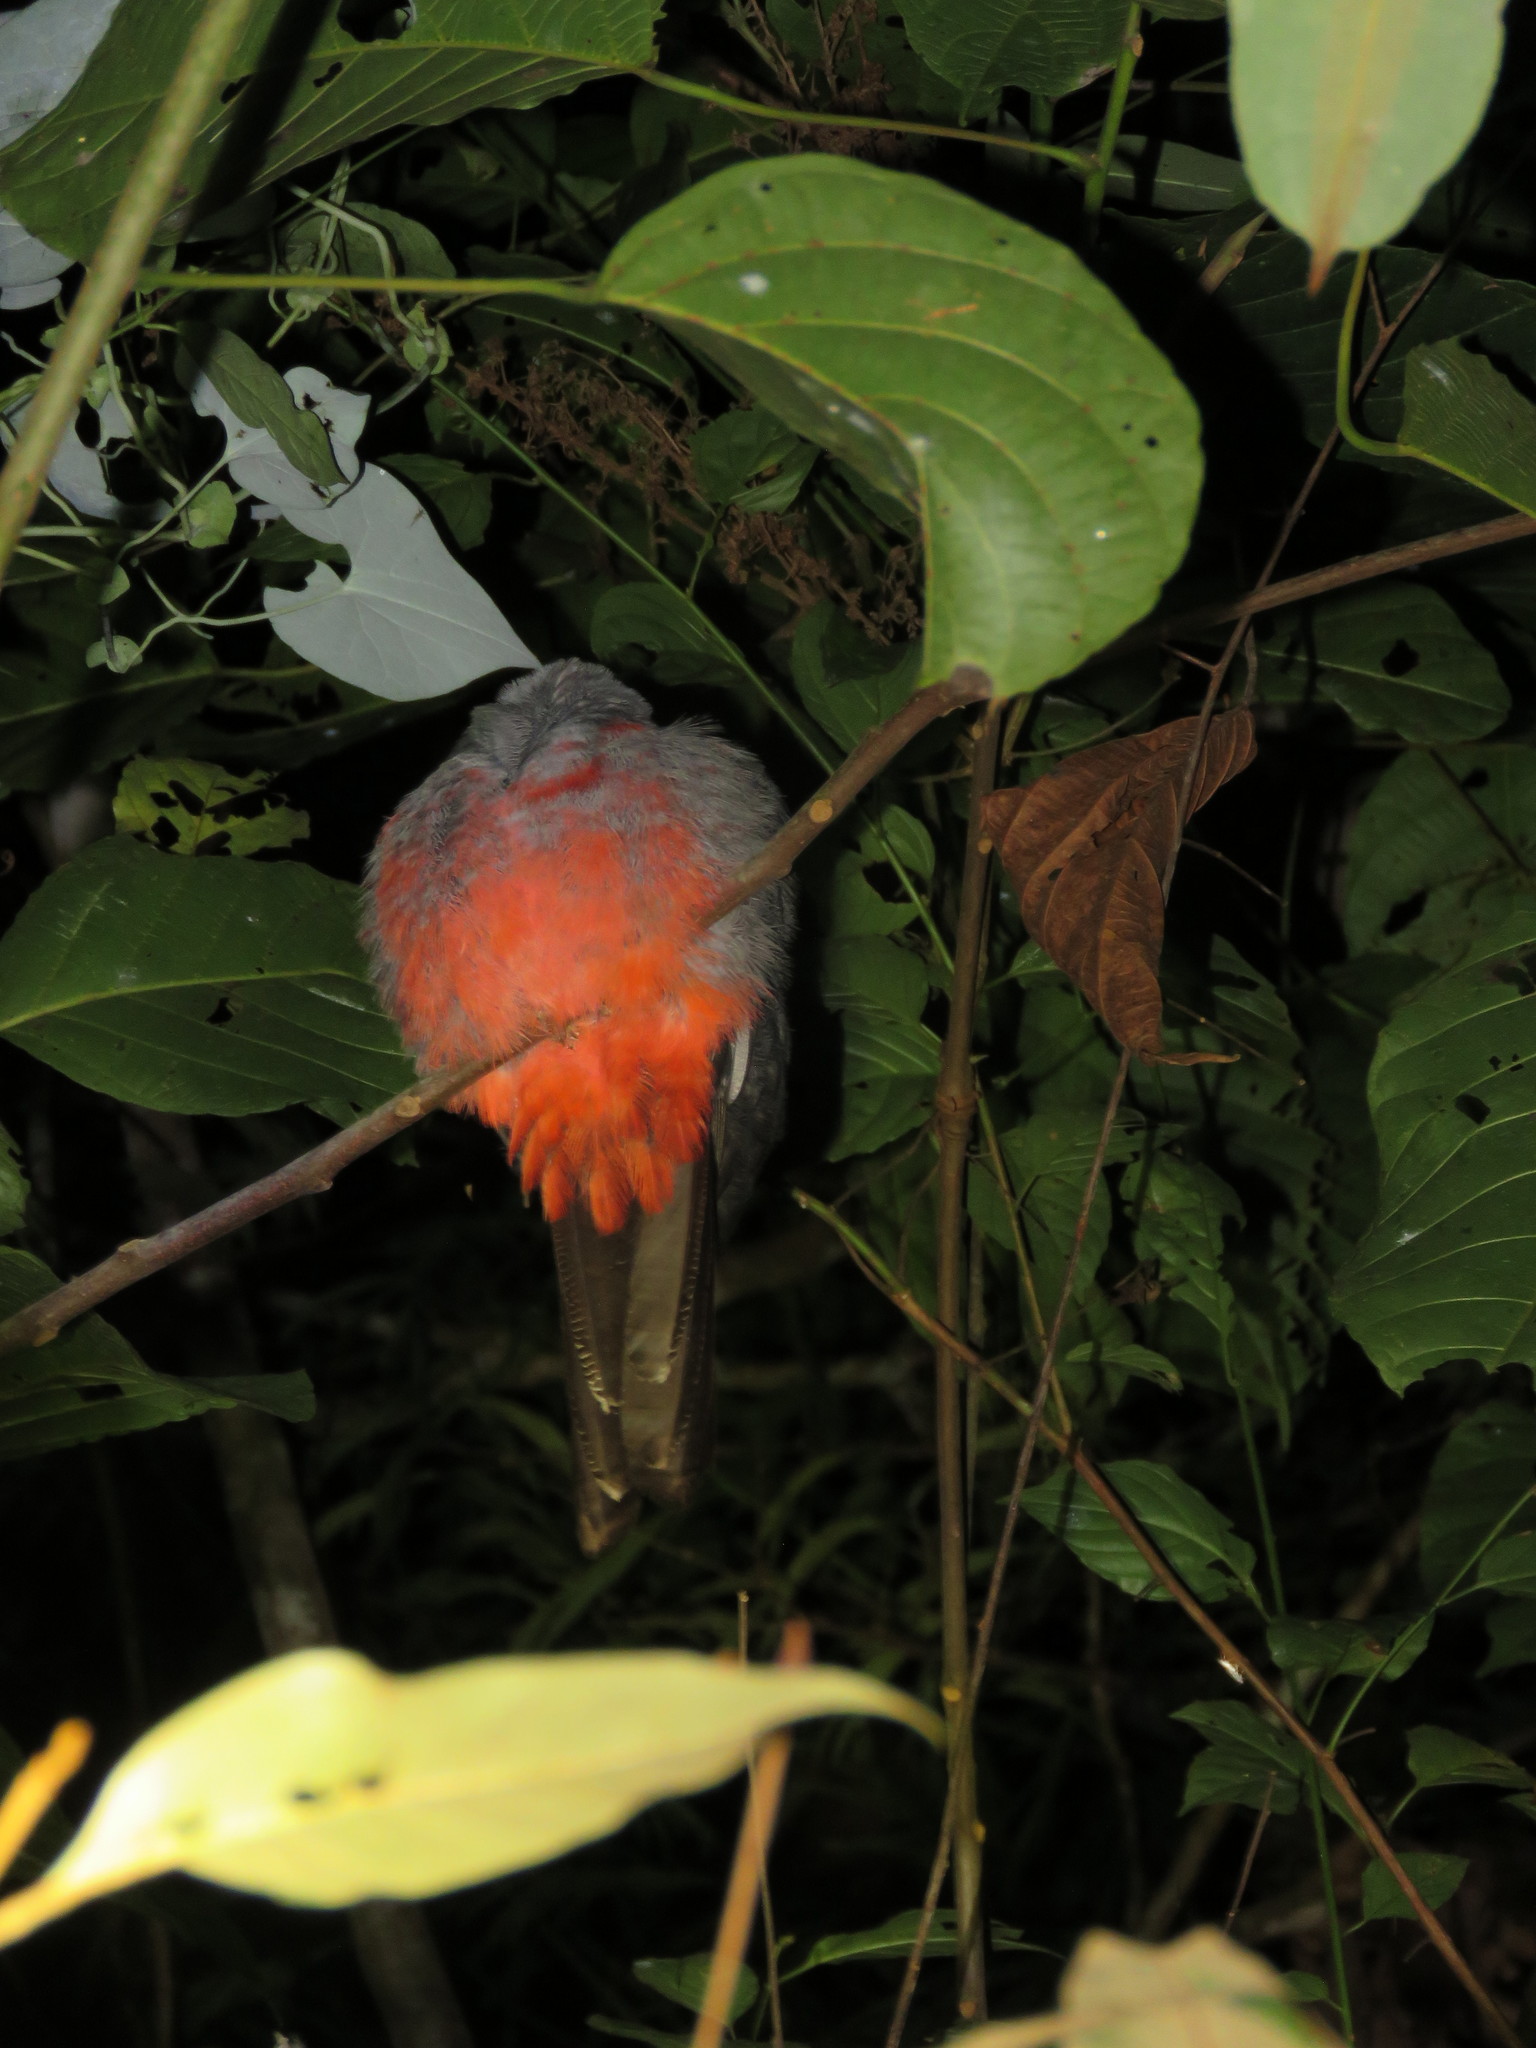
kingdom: Animalia
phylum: Chordata
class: Aves
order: Trogoniformes
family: Trogonidae
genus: Trogon
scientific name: Trogon melanurus
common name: Black-tailed trogon
